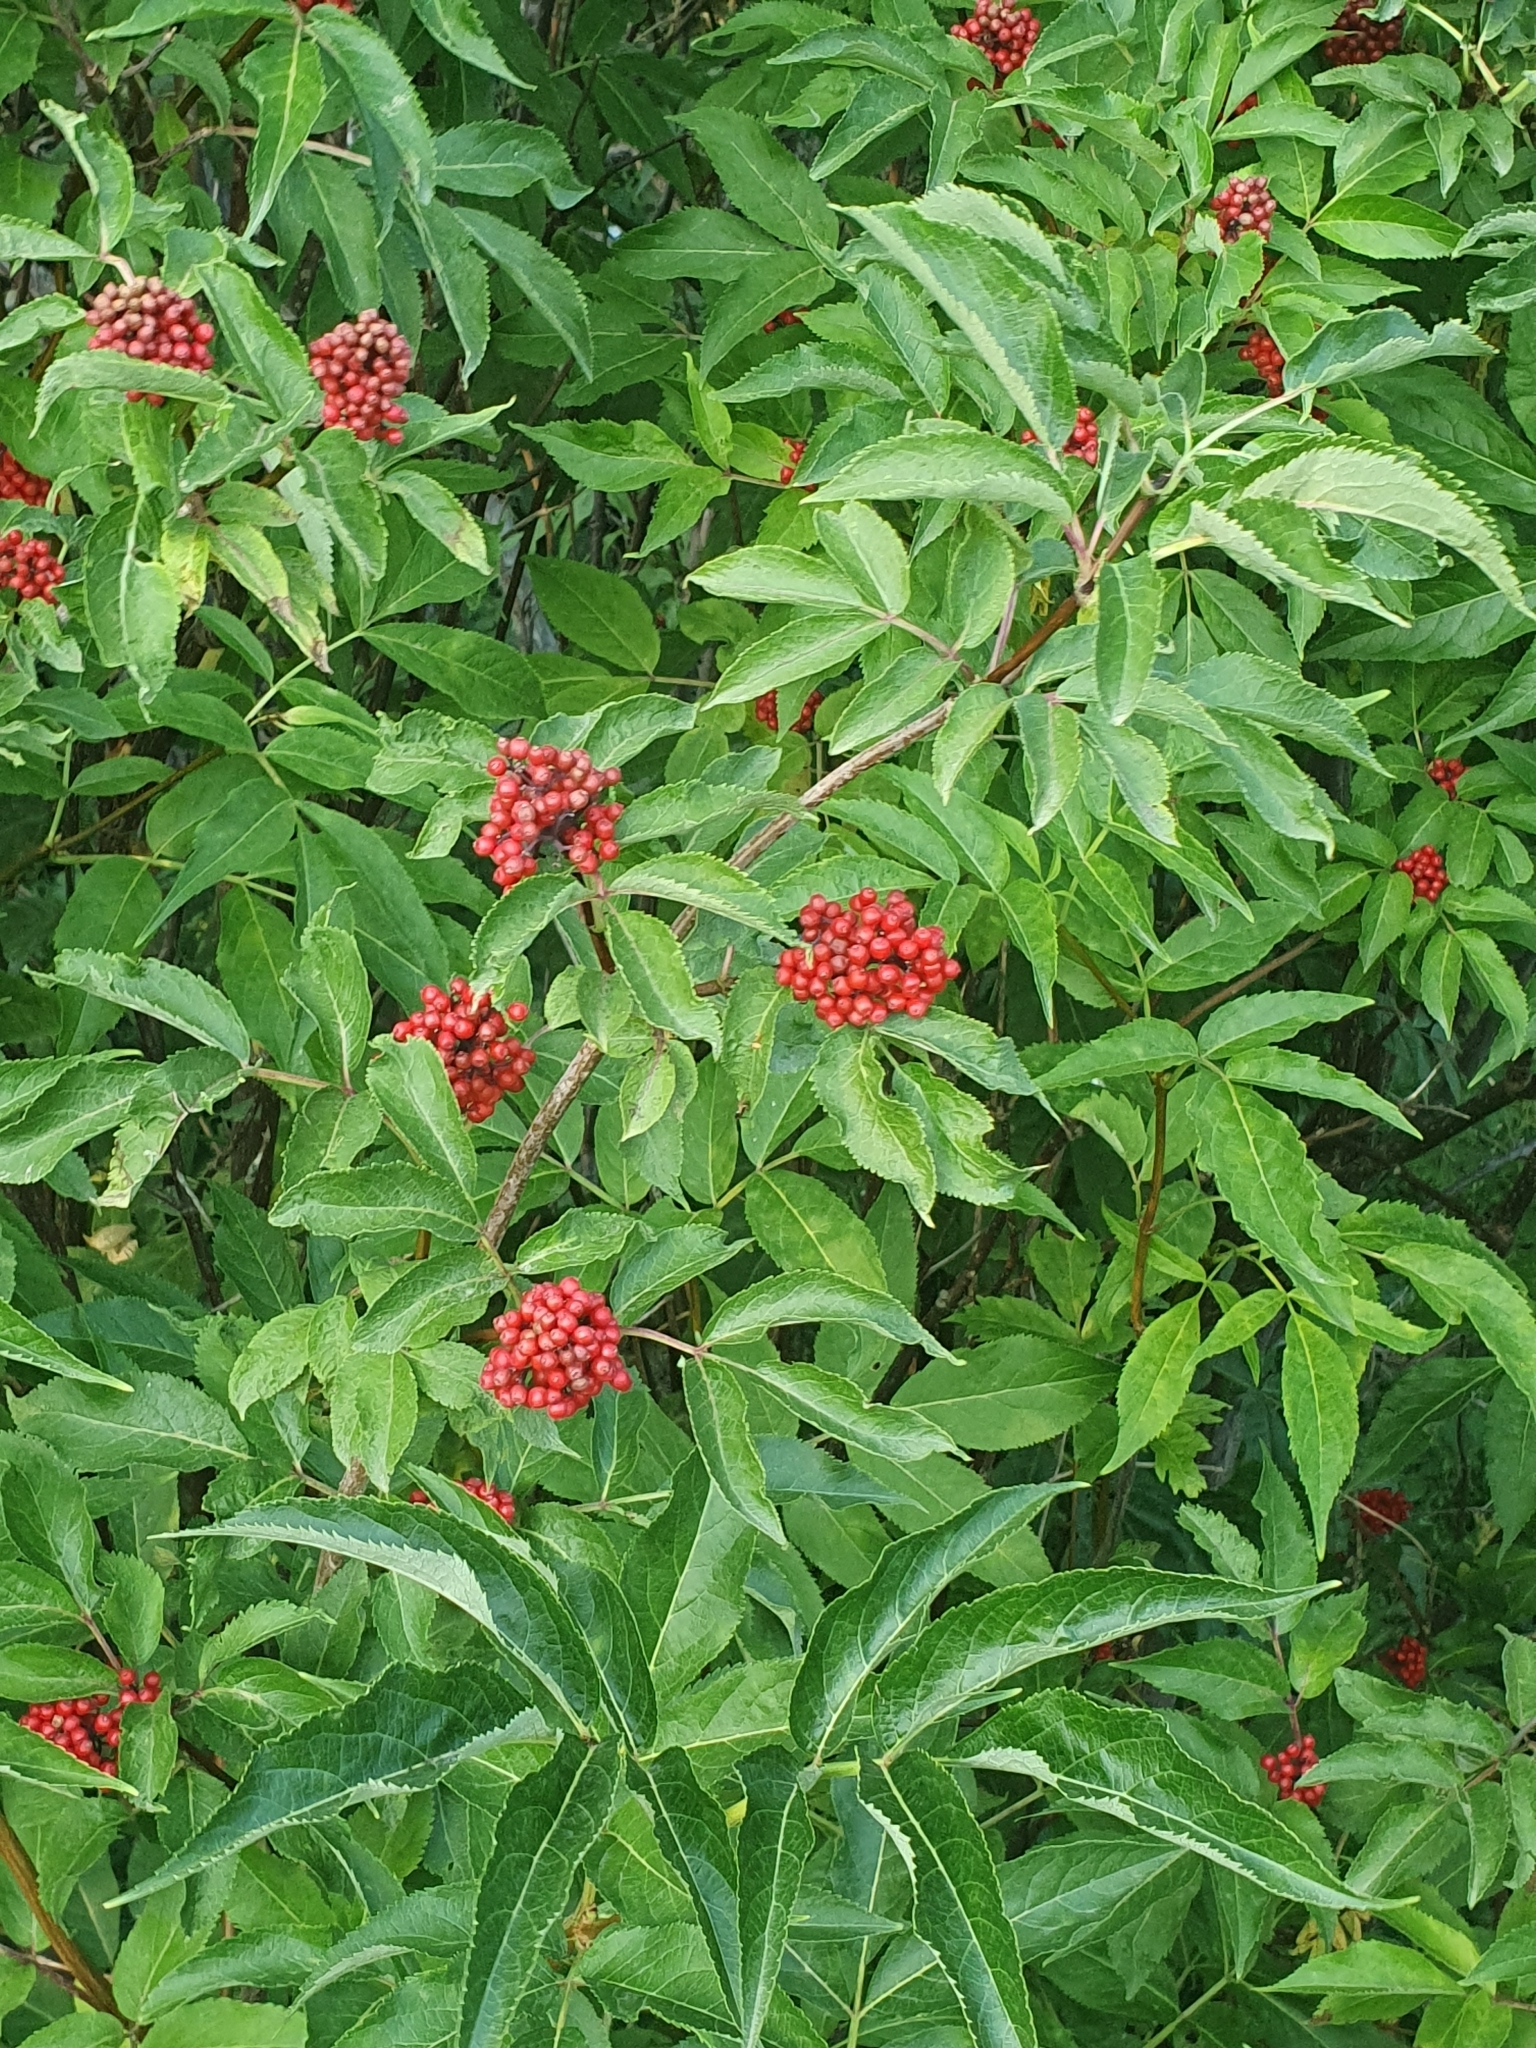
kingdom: Plantae
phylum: Tracheophyta
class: Magnoliopsida
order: Dipsacales
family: Viburnaceae
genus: Sambucus
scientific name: Sambucus racemosa
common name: Red-berried elder
